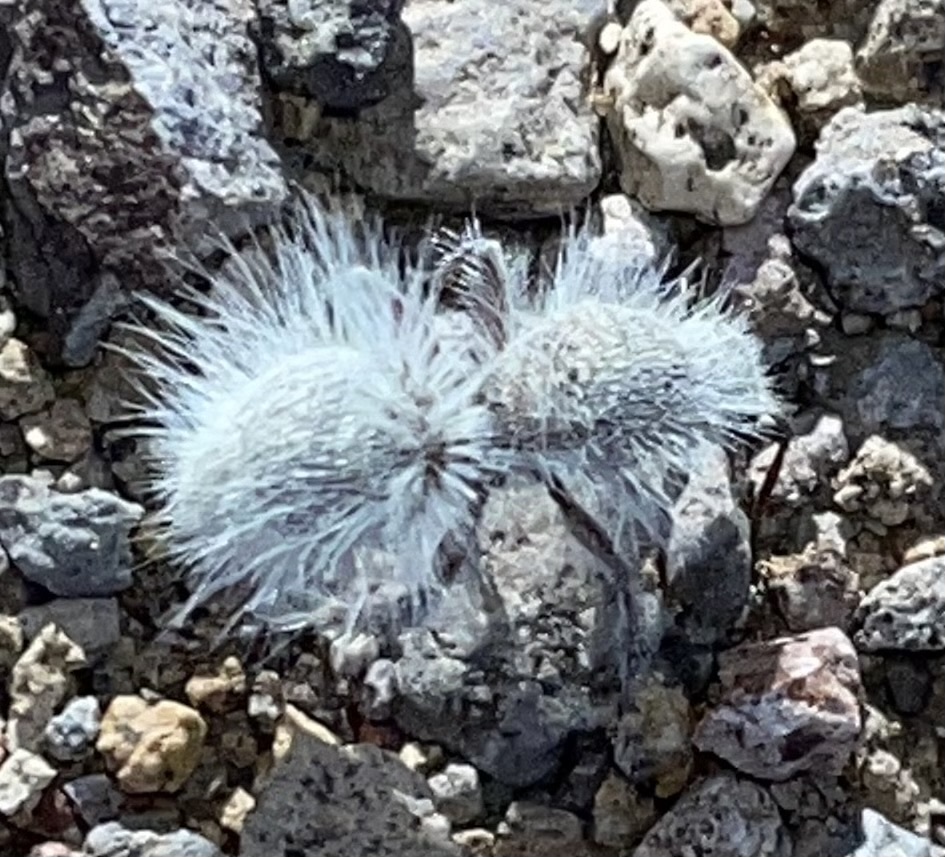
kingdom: Animalia
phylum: Arthropoda
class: Insecta
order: Hymenoptera
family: Mutillidae
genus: Dasymutilla
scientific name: Dasymutilla gloriosa
